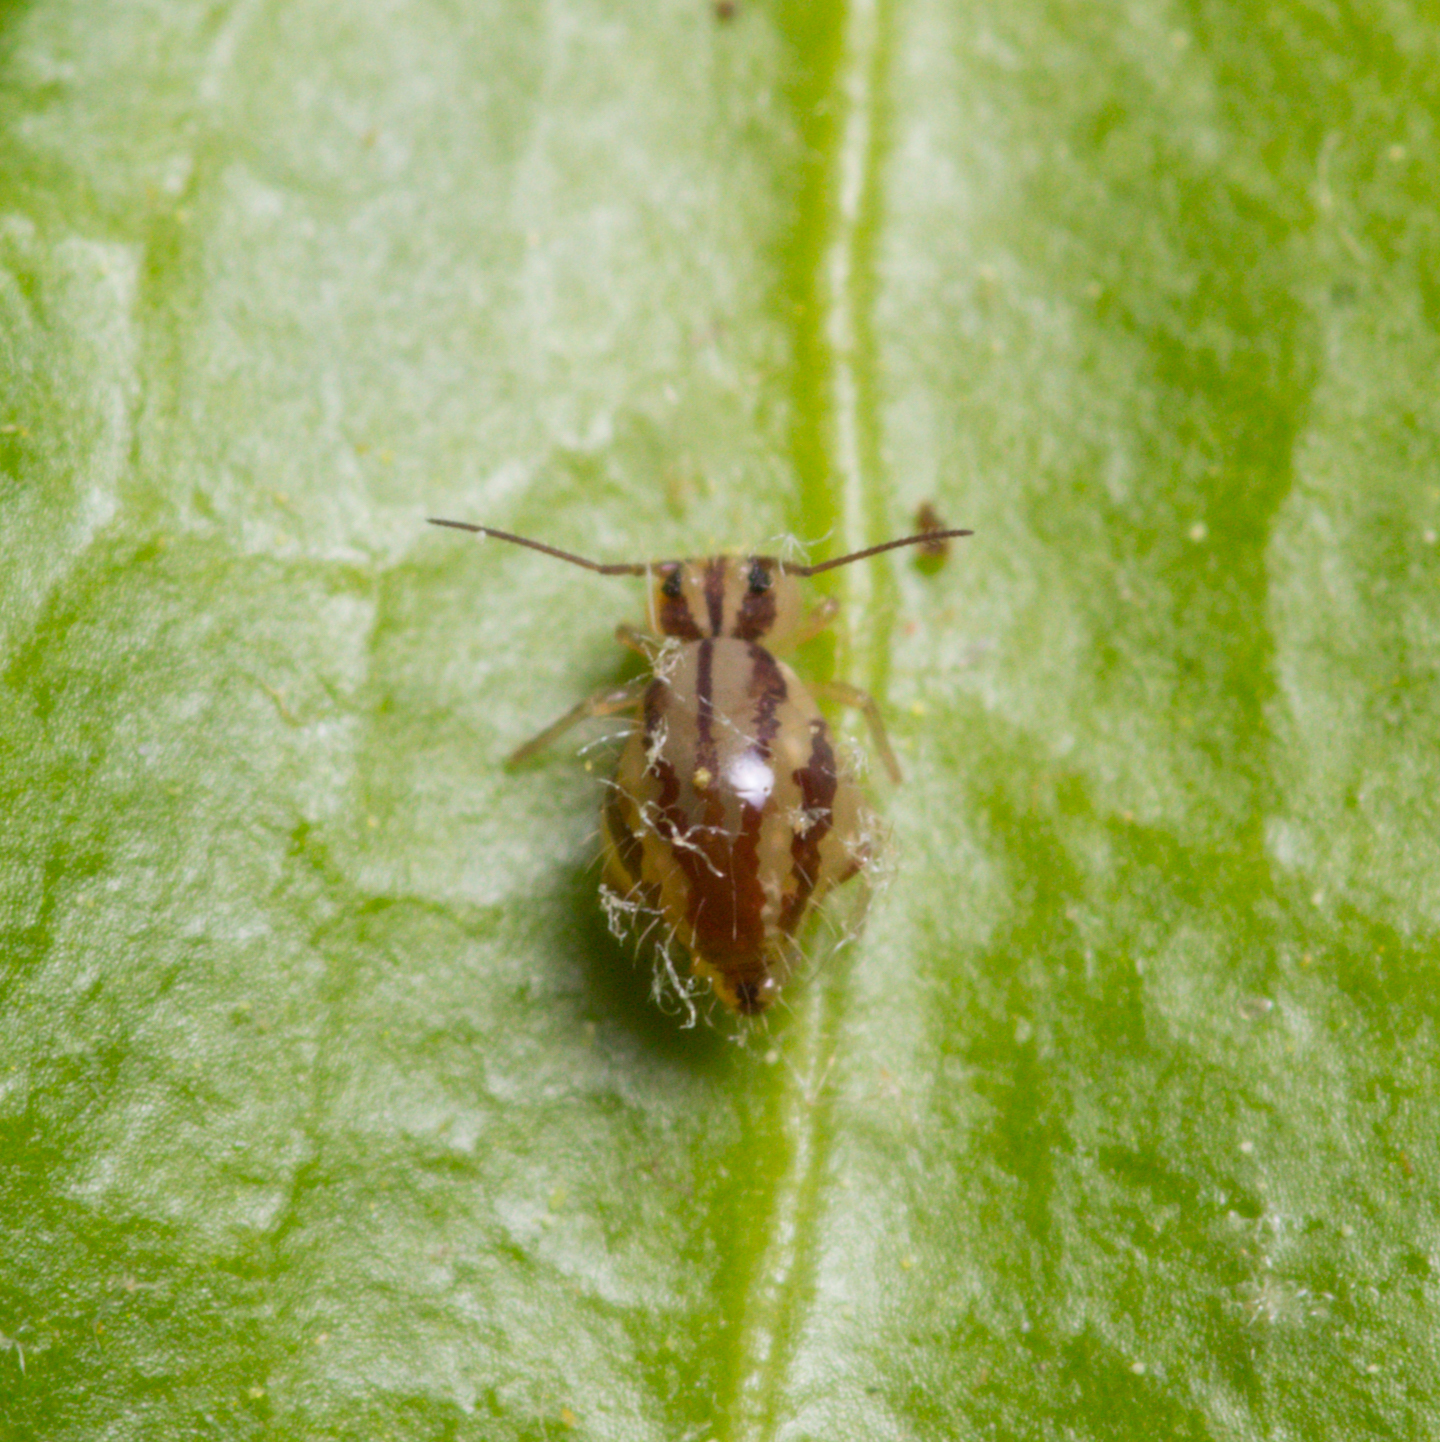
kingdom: Animalia
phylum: Arthropoda
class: Collembola
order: Symphypleona
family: Sminthuridae
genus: Sminthurus
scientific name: Sminthurus mencenbergae
